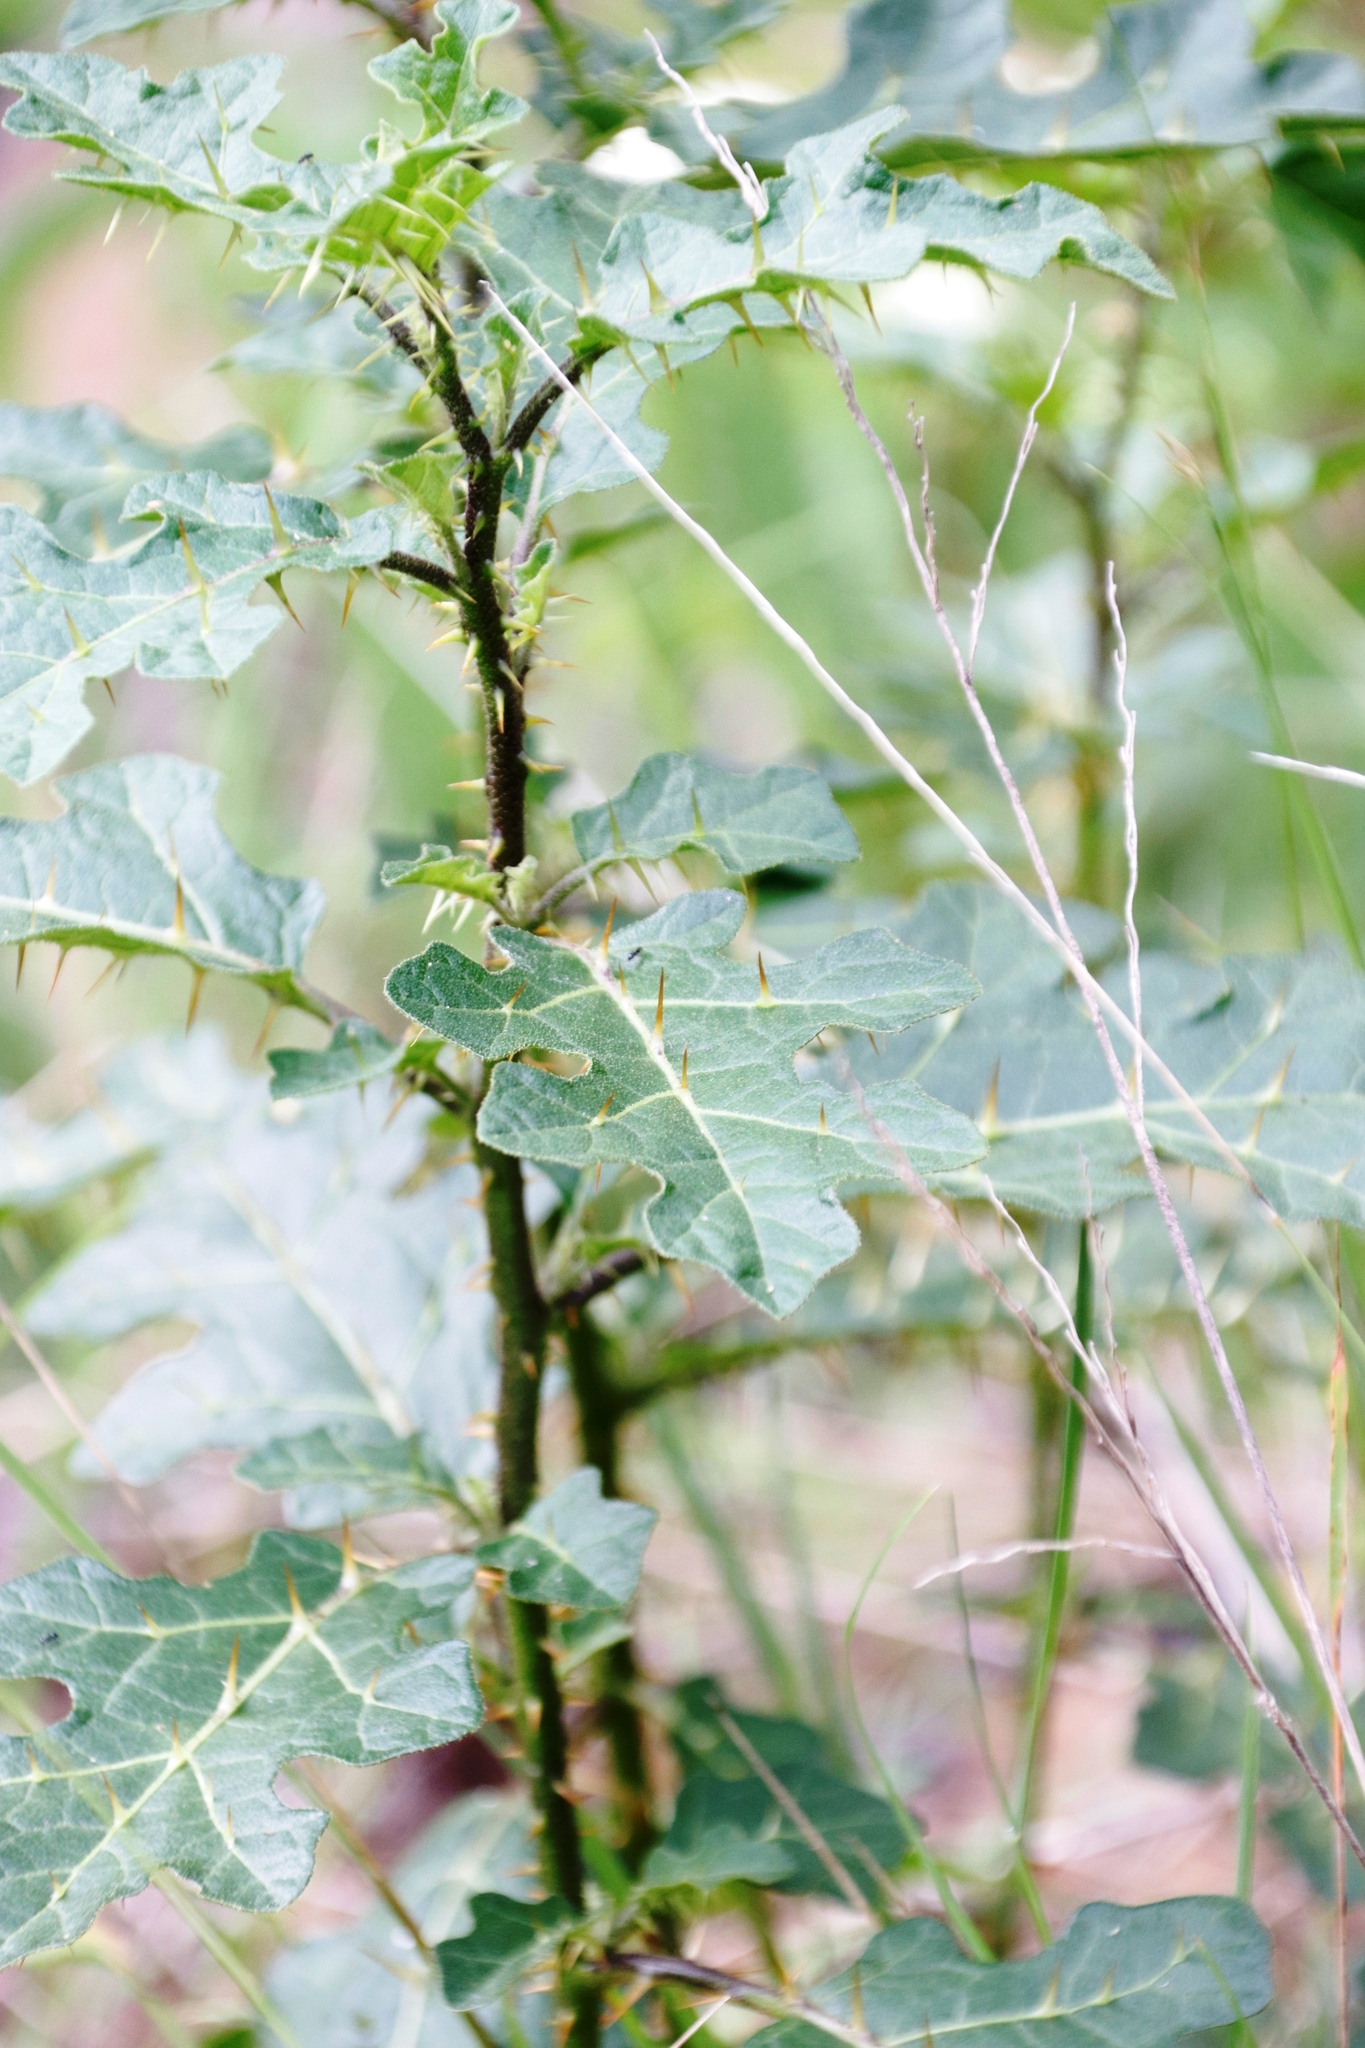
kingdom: Plantae
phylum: Tracheophyta
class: Magnoliopsida
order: Solanales
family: Solanaceae
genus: Solanum
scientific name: Solanum rubetorum
